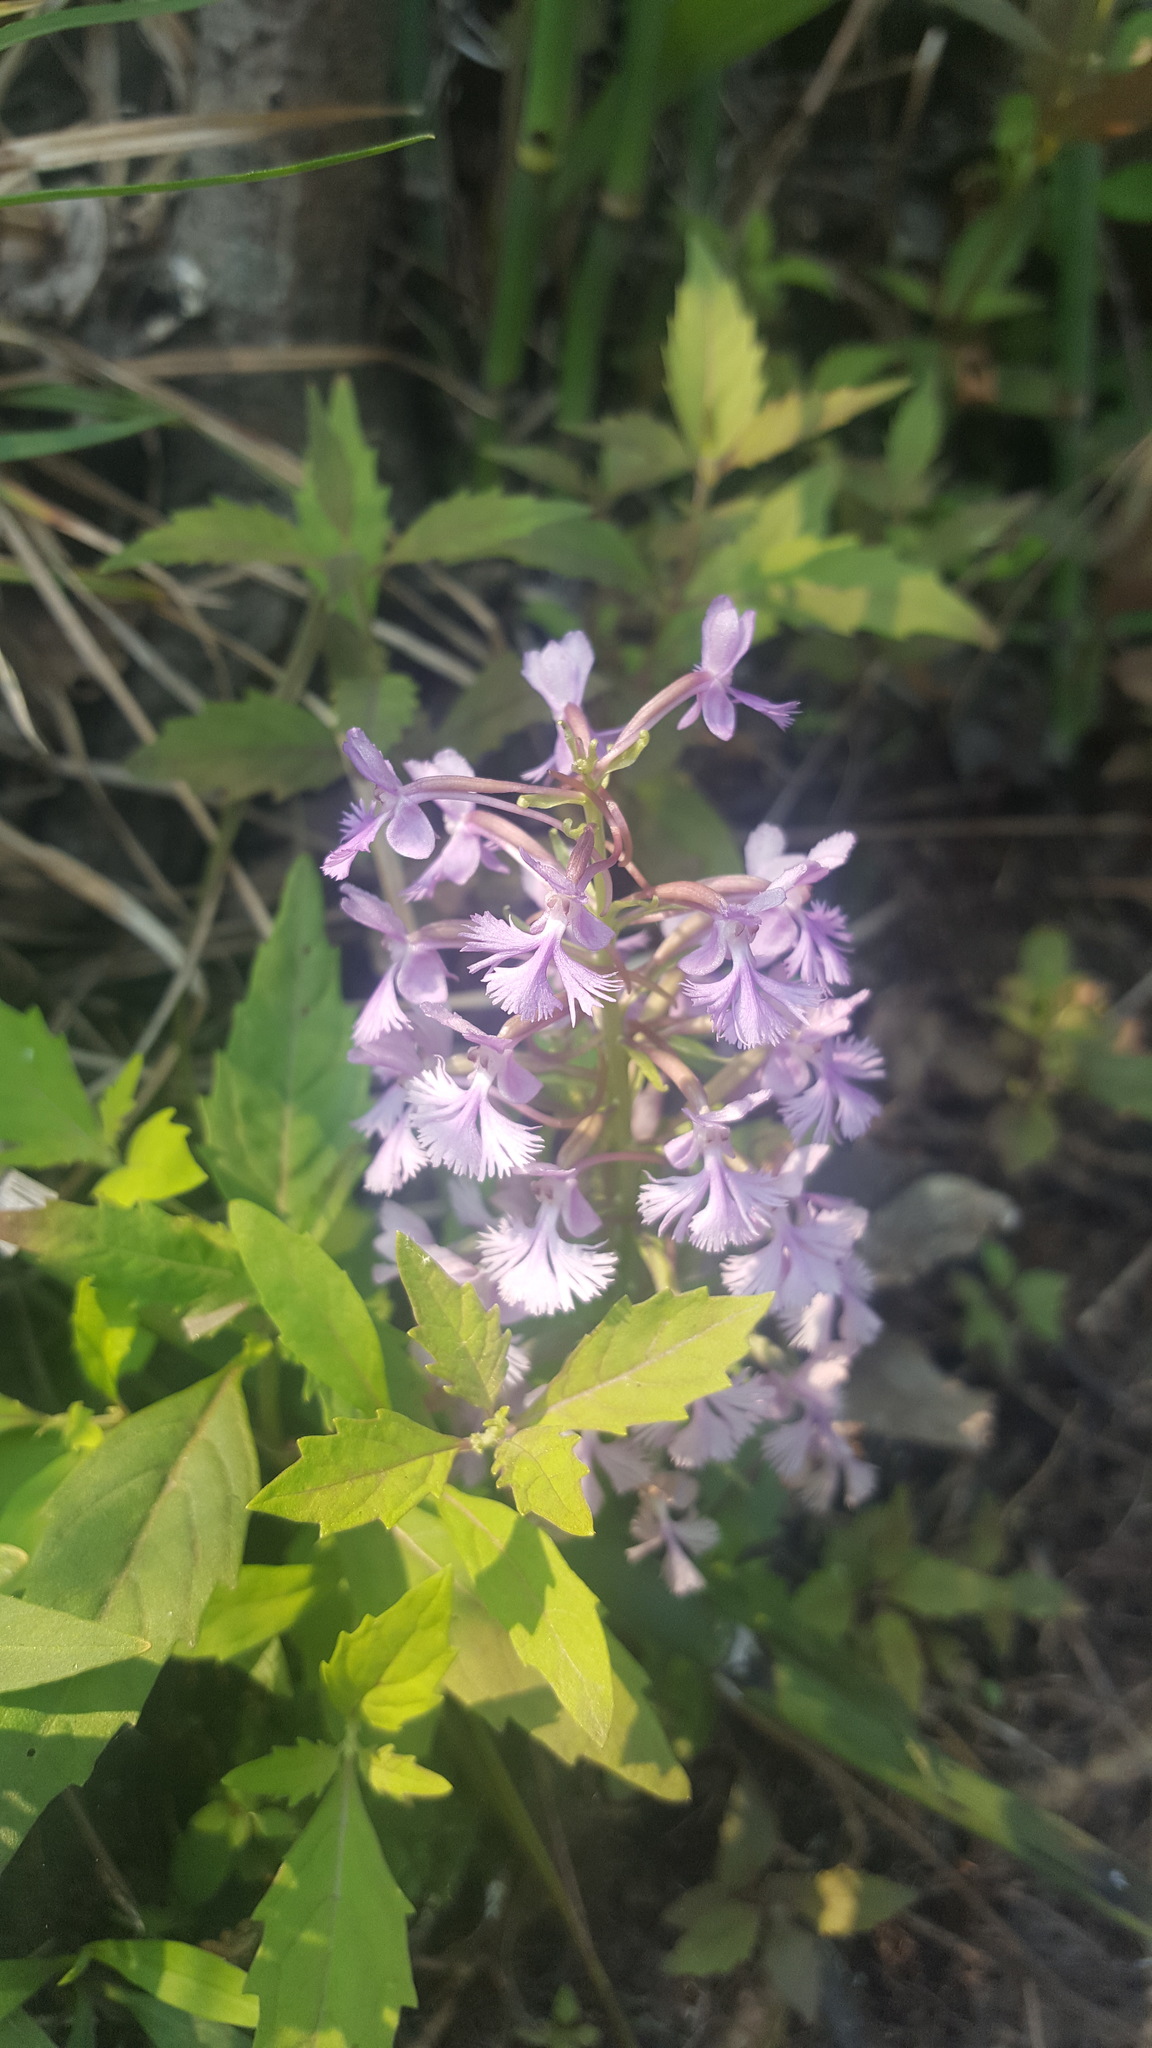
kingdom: Plantae
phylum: Tracheophyta
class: Liliopsida
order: Asparagales
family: Orchidaceae
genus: Platanthera
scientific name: Platanthera psycodes
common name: Lesser purple fringed orchid
